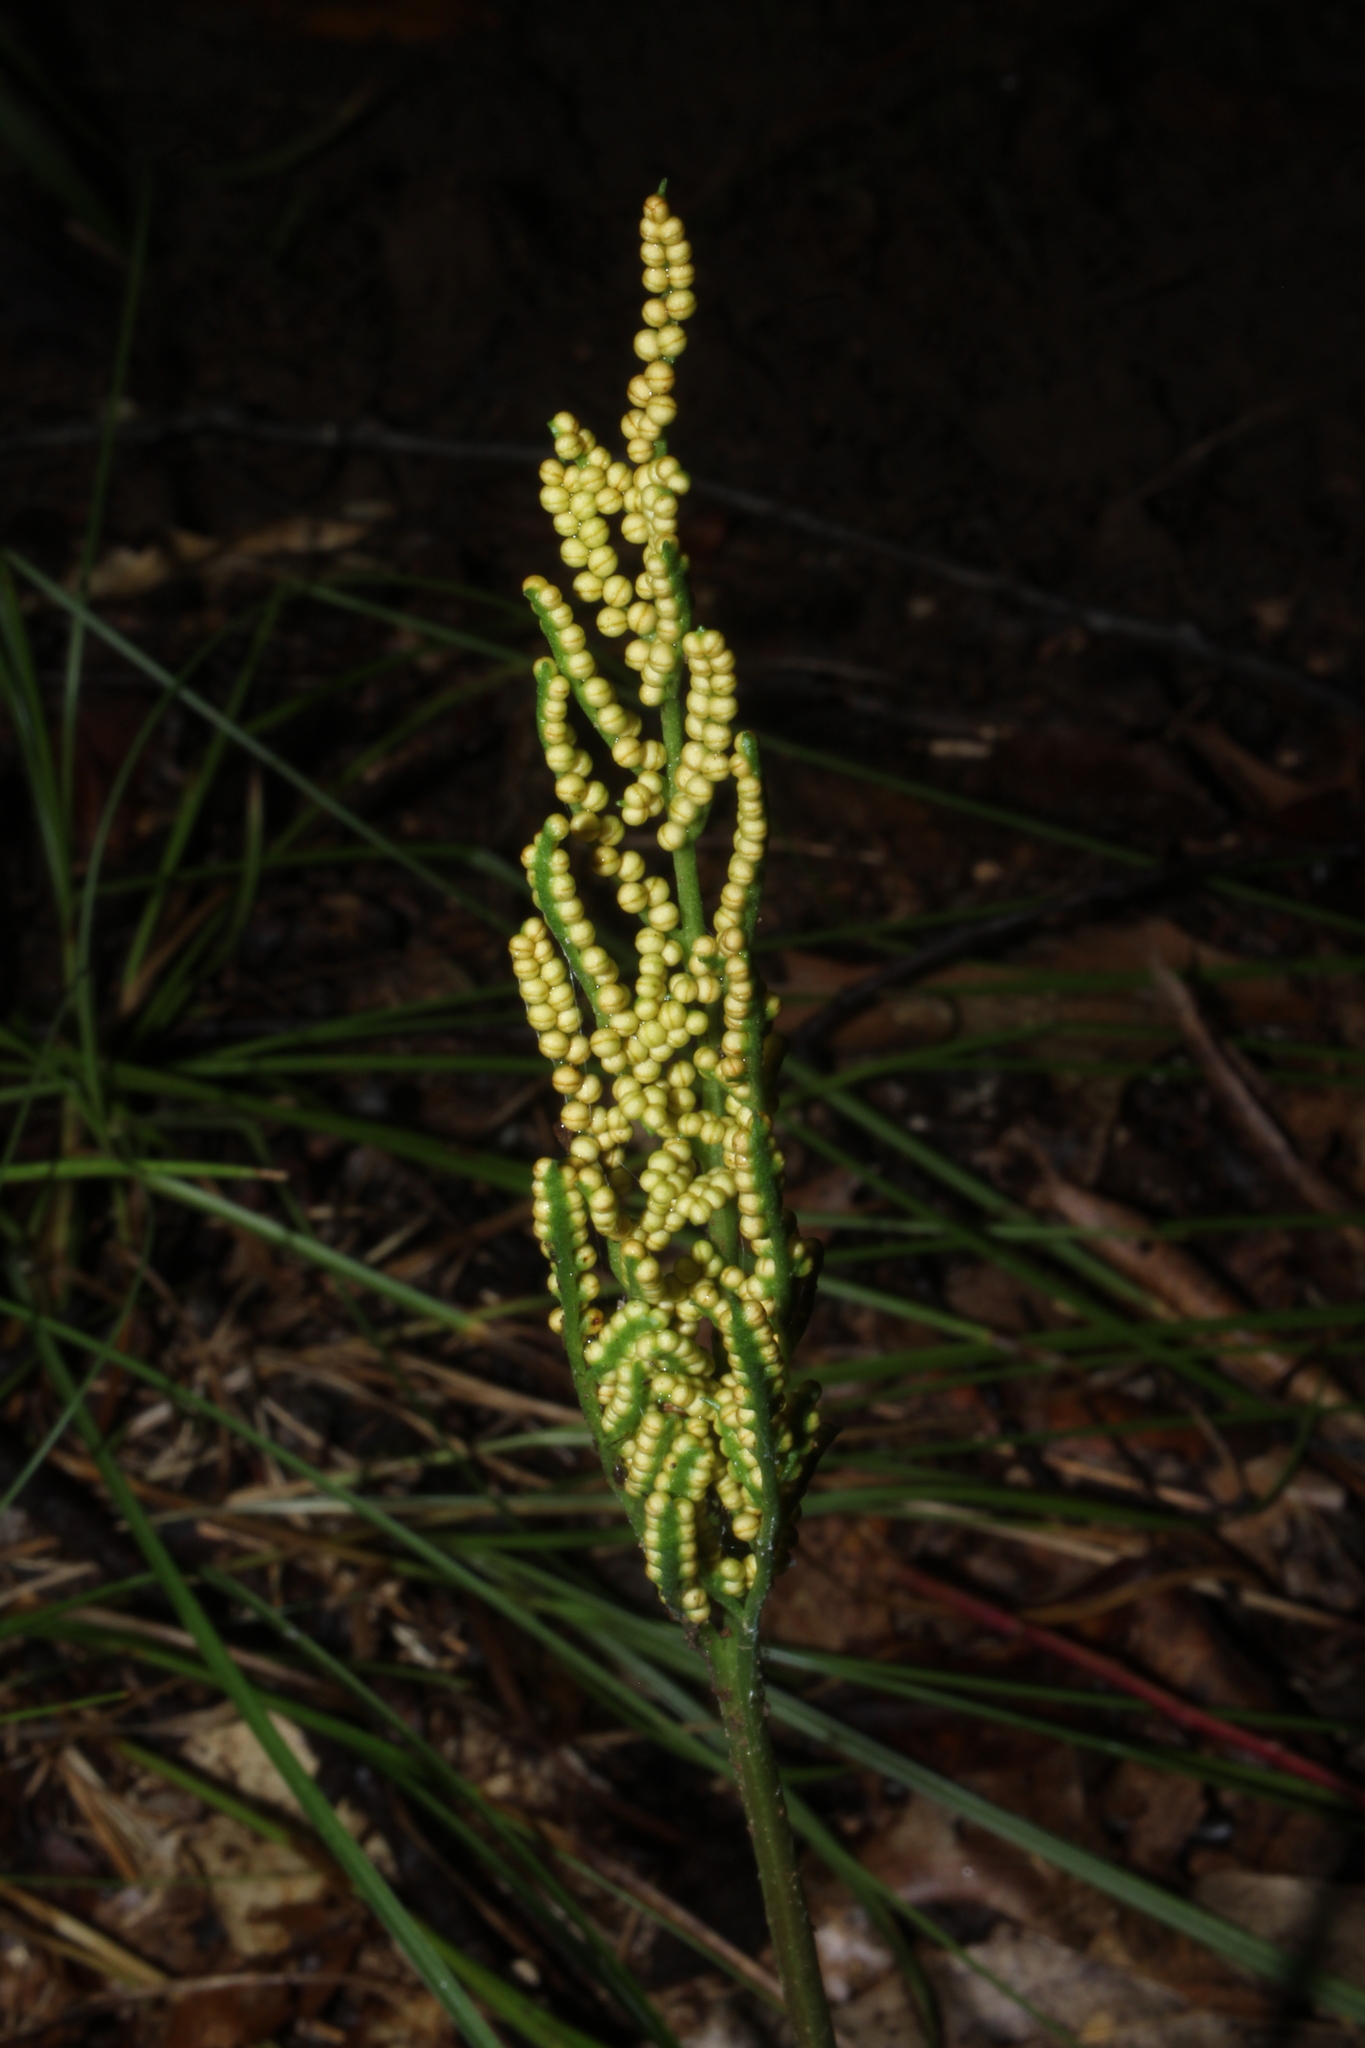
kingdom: Plantae
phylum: Tracheophyta
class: Polypodiopsida
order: Ophioglossales
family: Ophioglossaceae
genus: Sceptridium
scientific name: Sceptridium dissectum
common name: Cut-leaved grapefern
